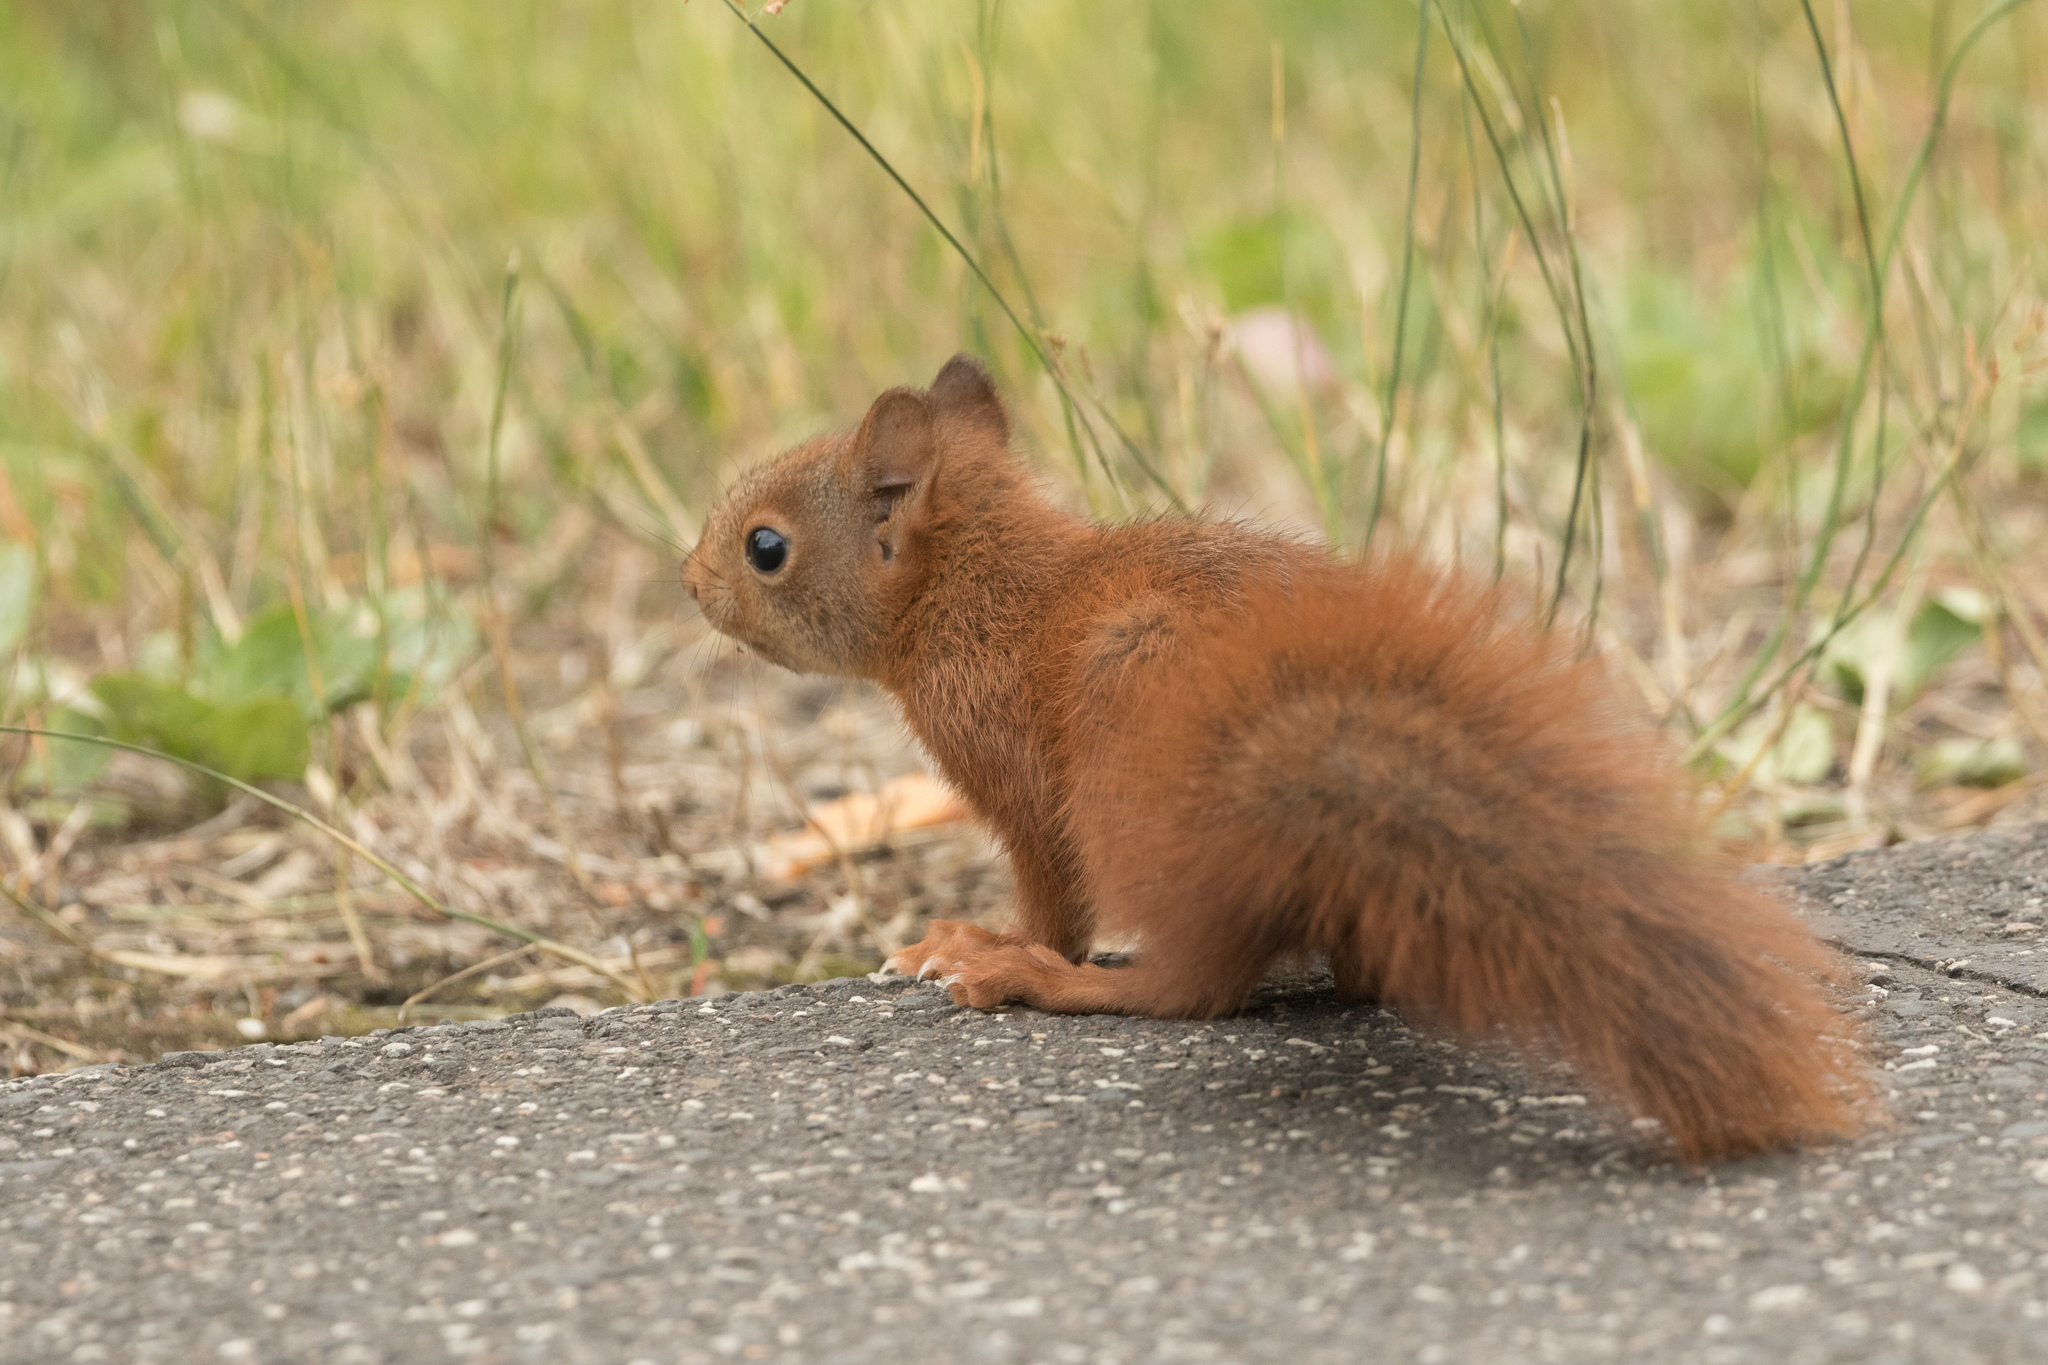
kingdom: Animalia
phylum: Chordata
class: Mammalia
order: Rodentia
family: Sciuridae
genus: Sciurus
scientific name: Sciurus vulgaris
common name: Eurasian red squirrel
